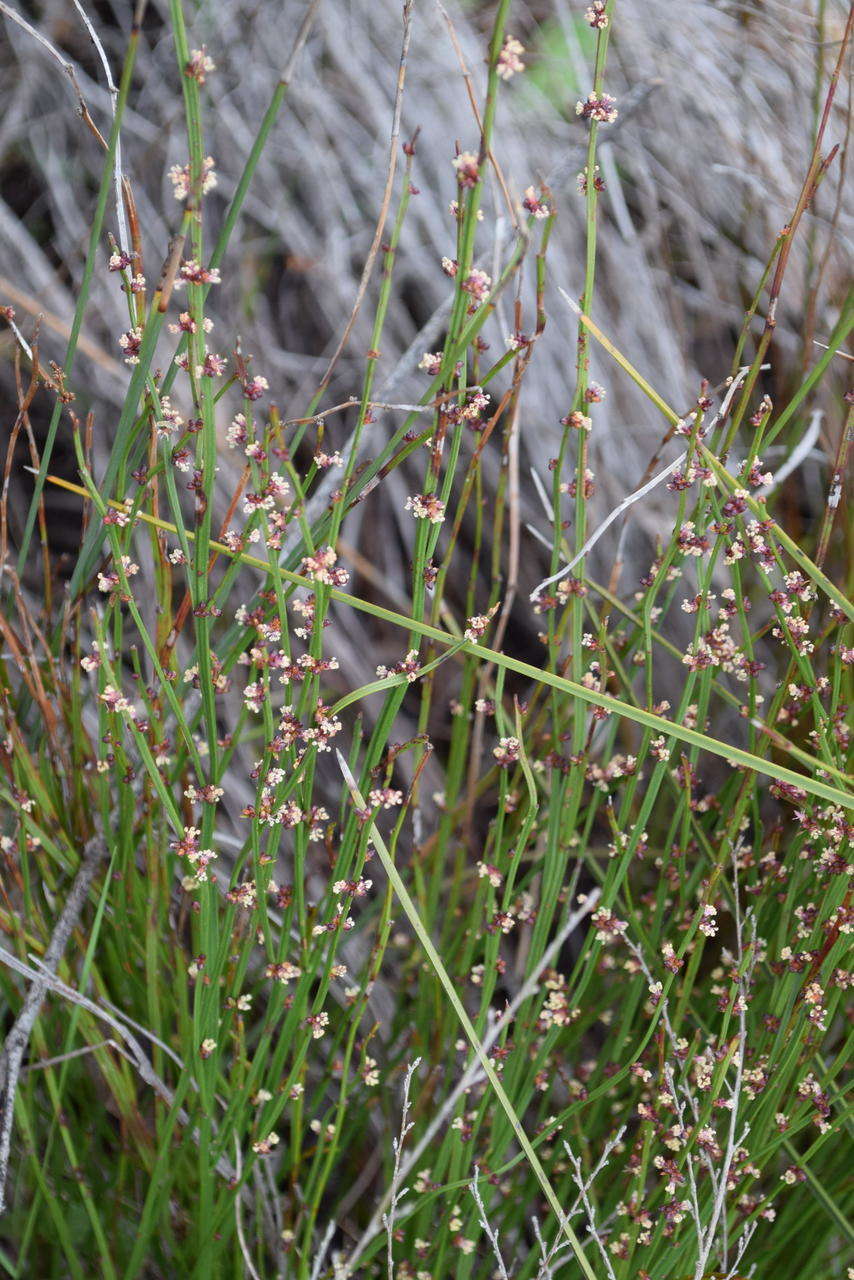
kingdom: Plantae
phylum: Tracheophyta
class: Magnoliopsida
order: Malpighiales
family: Euphorbiaceae
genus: Amperea
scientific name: Amperea xiphoclada
